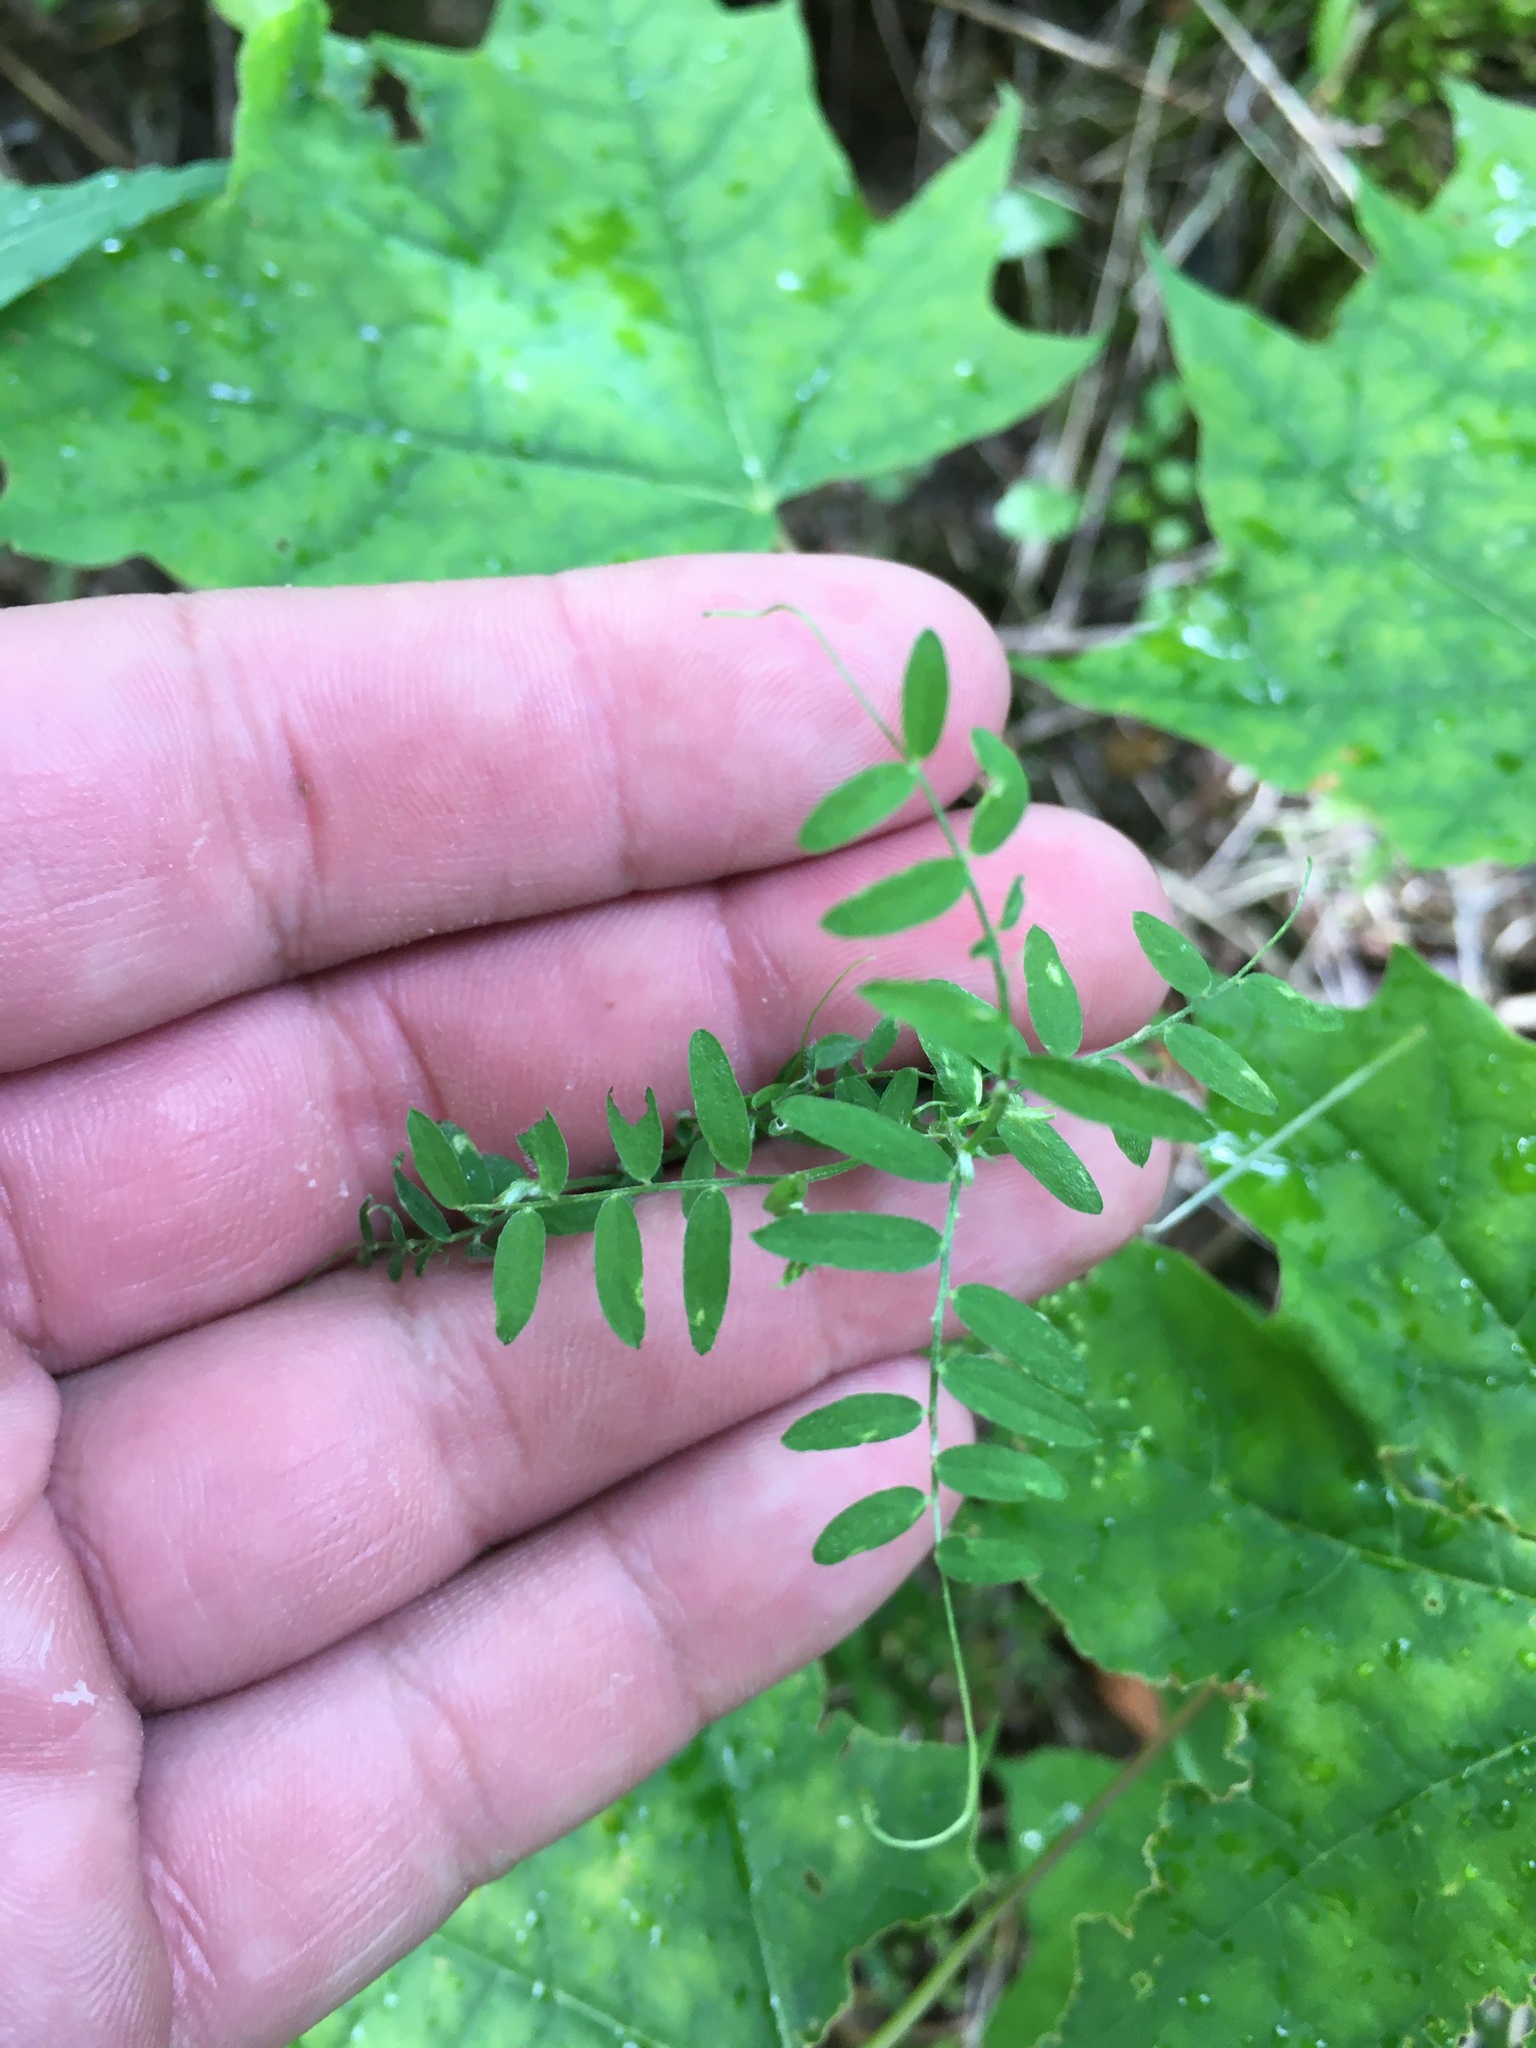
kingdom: Plantae
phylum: Tracheophyta
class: Magnoliopsida
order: Fabales
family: Fabaceae
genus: Vicia
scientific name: Vicia cracca
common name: Bird vetch
